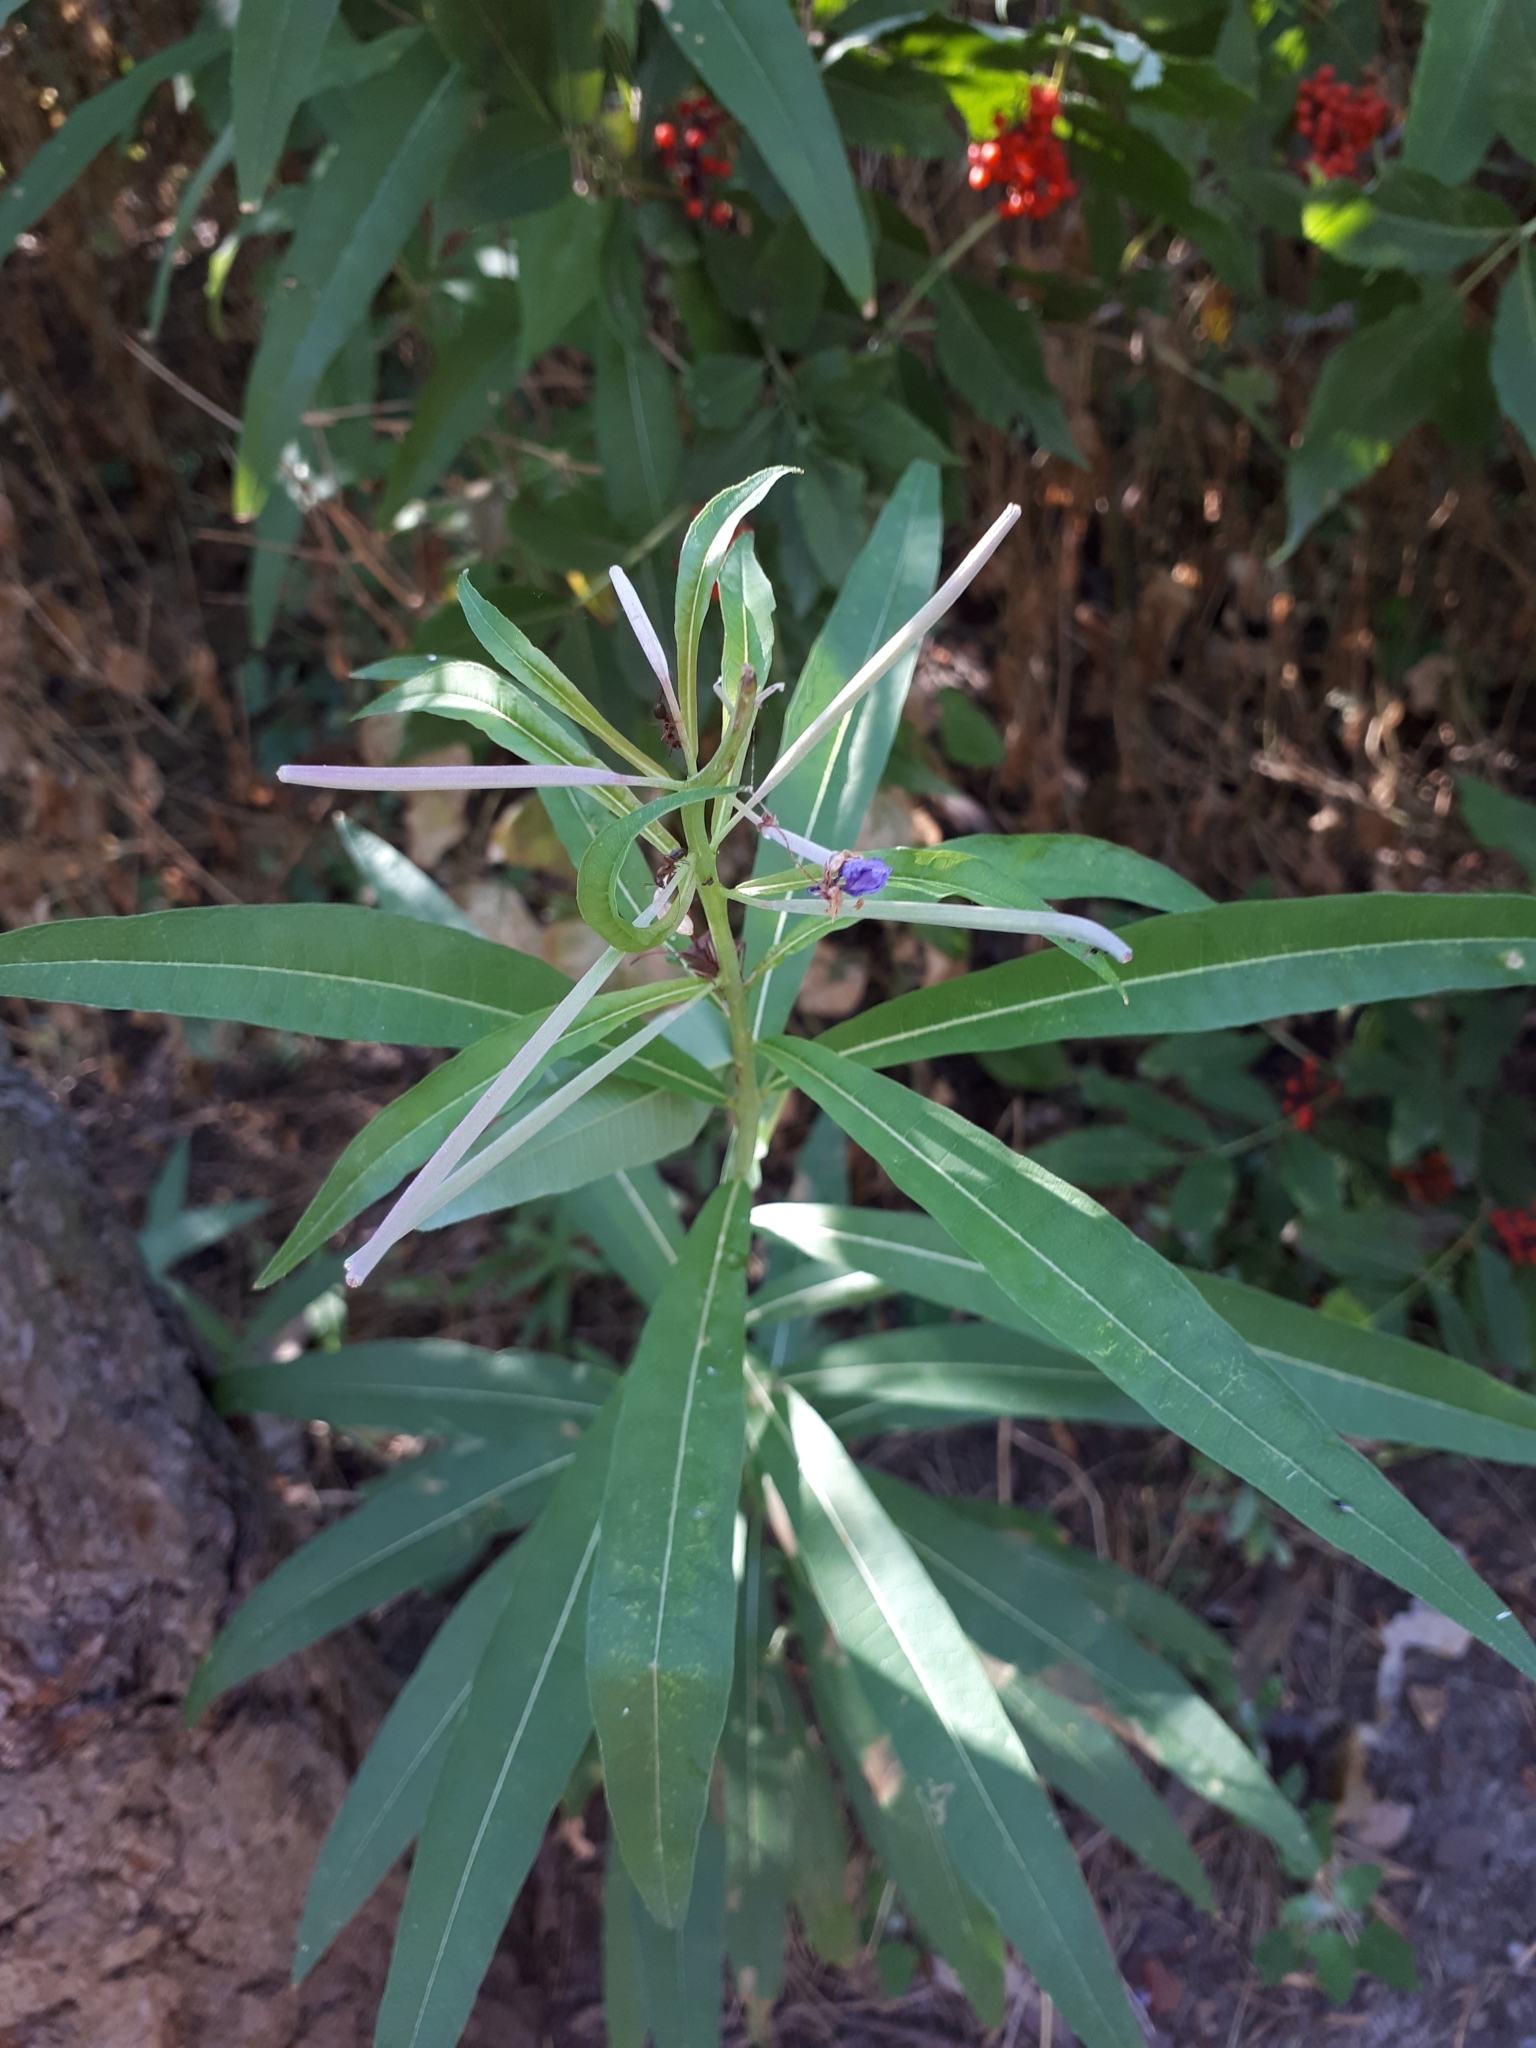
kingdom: Plantae
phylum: Tracheophyta
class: Magnoliopsida
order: Myrtales
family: Onagraceae
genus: Chamaenerion
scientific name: Chamaenerion angustifolium
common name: Fireweed
